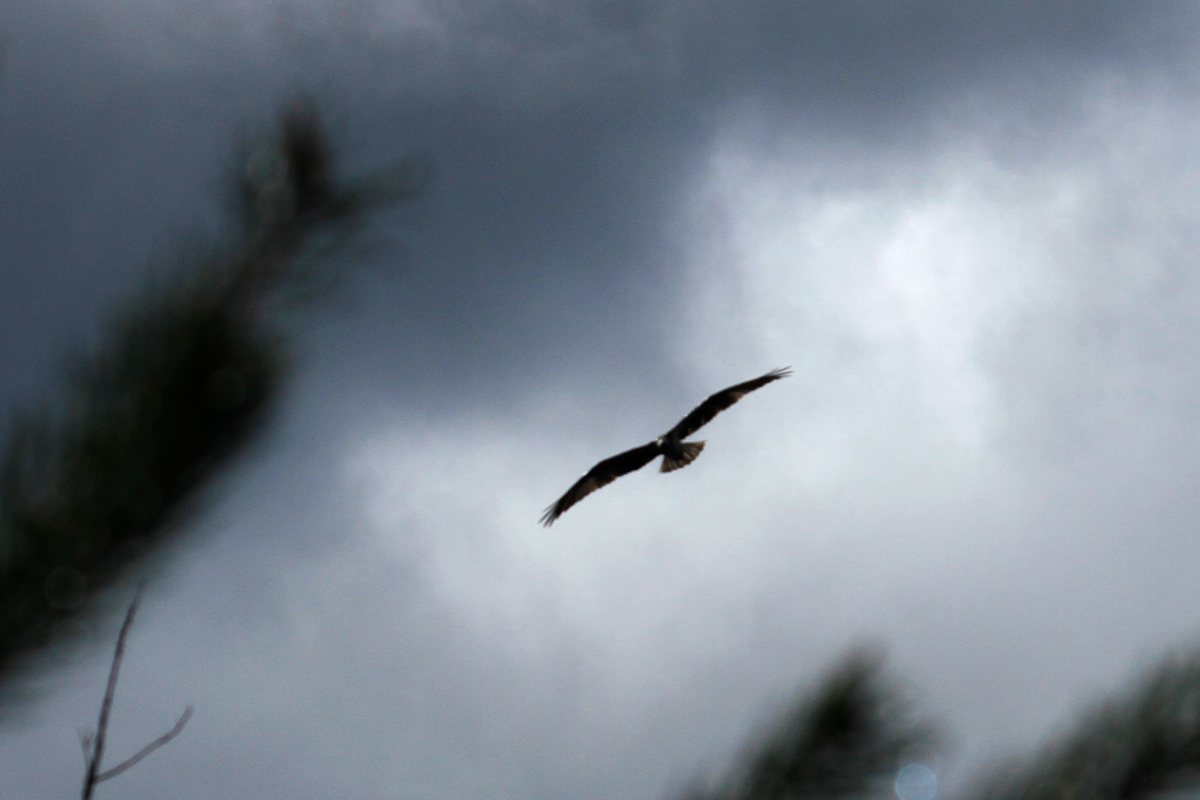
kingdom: Animalia
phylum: Chordata
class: Aves
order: Accipitriformes
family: Pandionidae
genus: Pandion
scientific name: Pandion haliaetus
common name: Osprey
